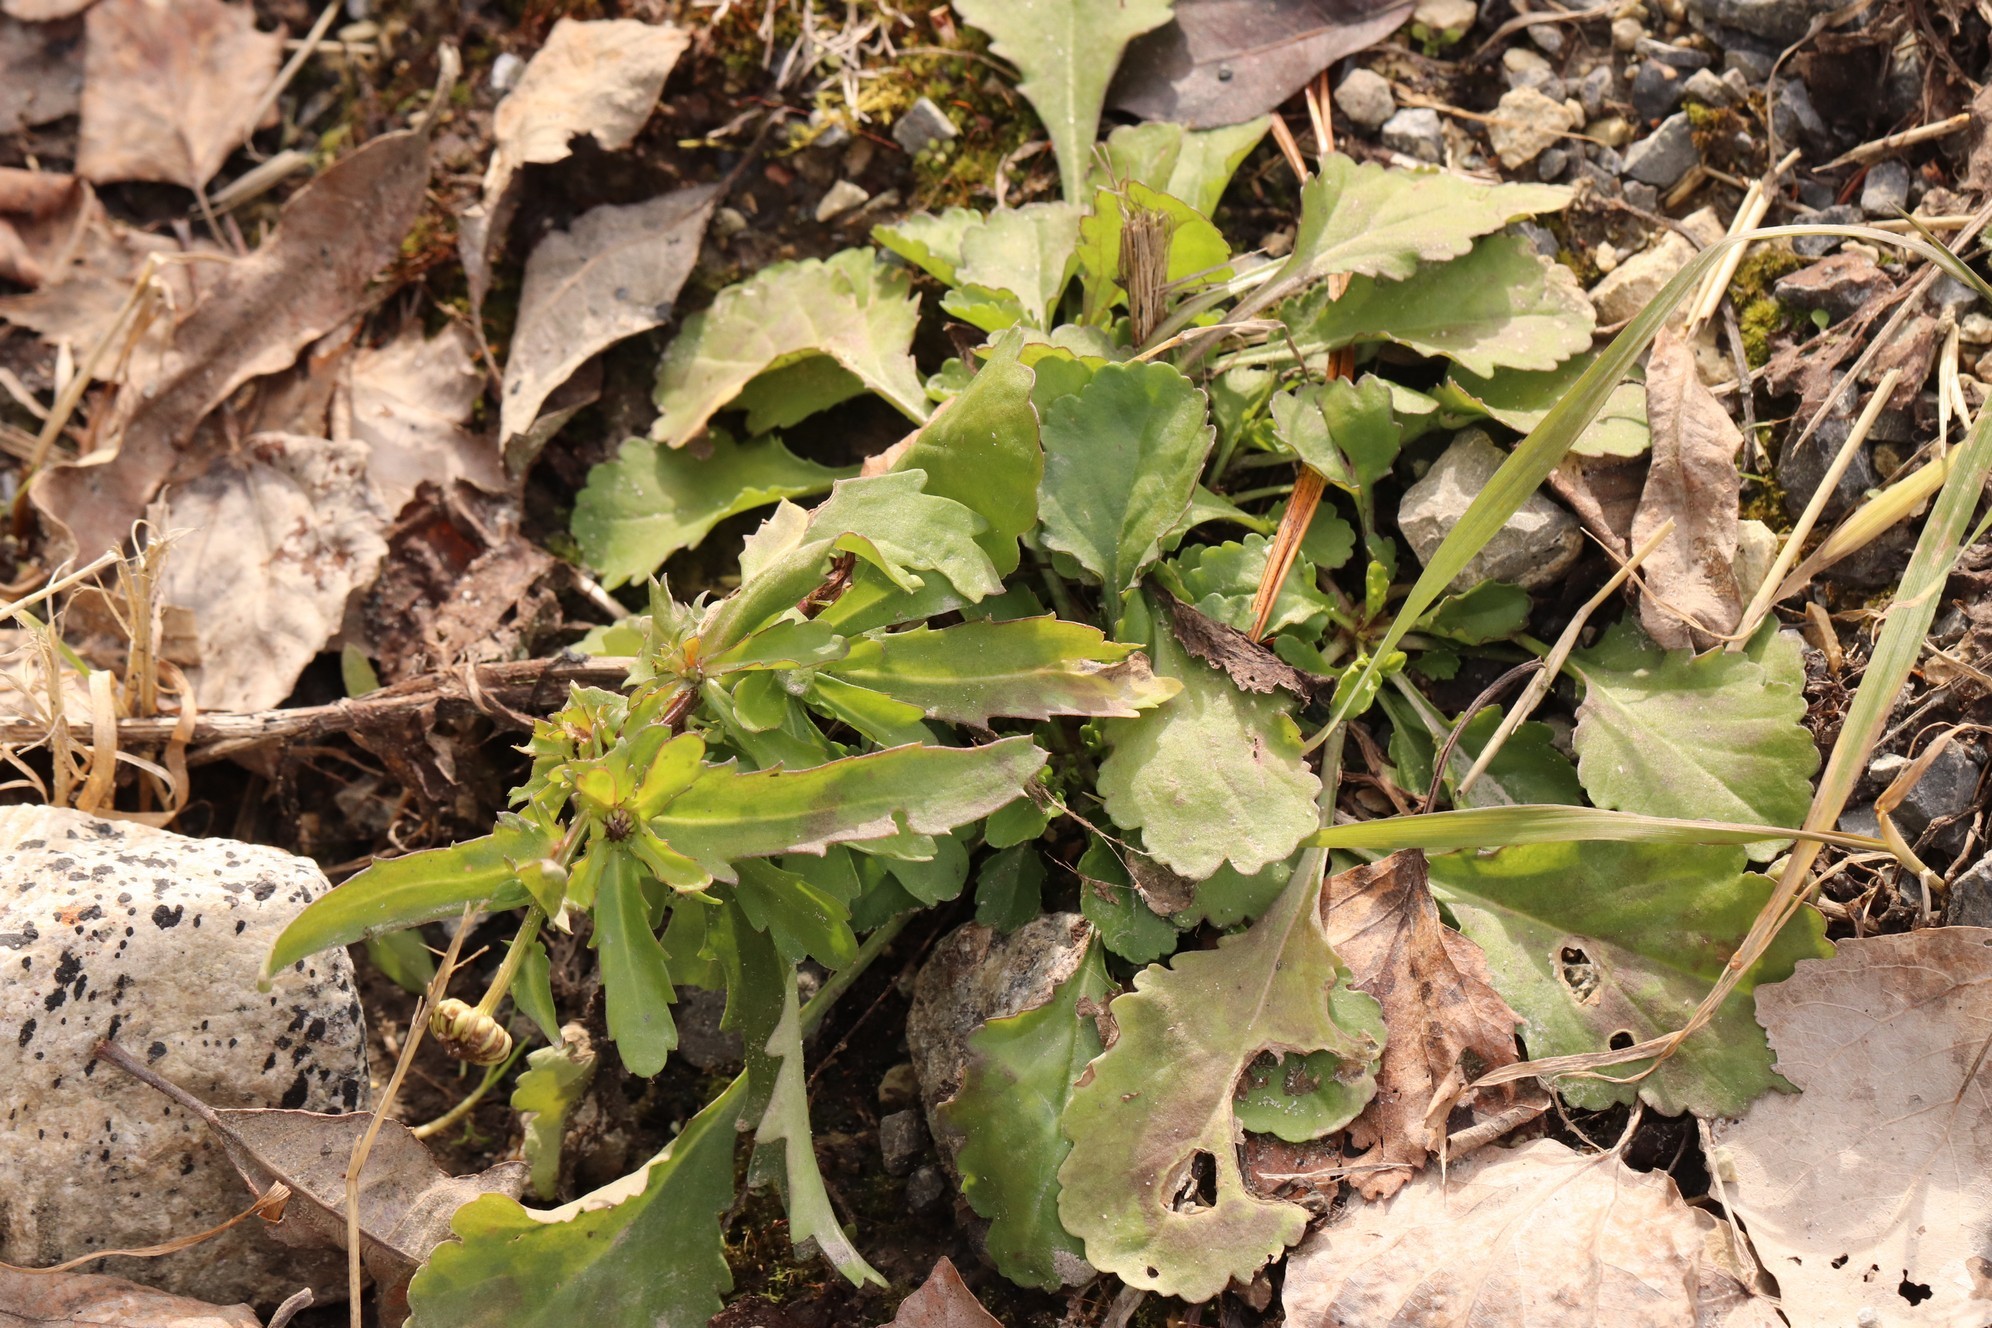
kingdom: Plantae
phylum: Tracheophyta
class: Magnoliopsida
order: Asterales
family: Asteraceae
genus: Leucanthemum
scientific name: Leucanthemum ircutianum
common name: Daisy
